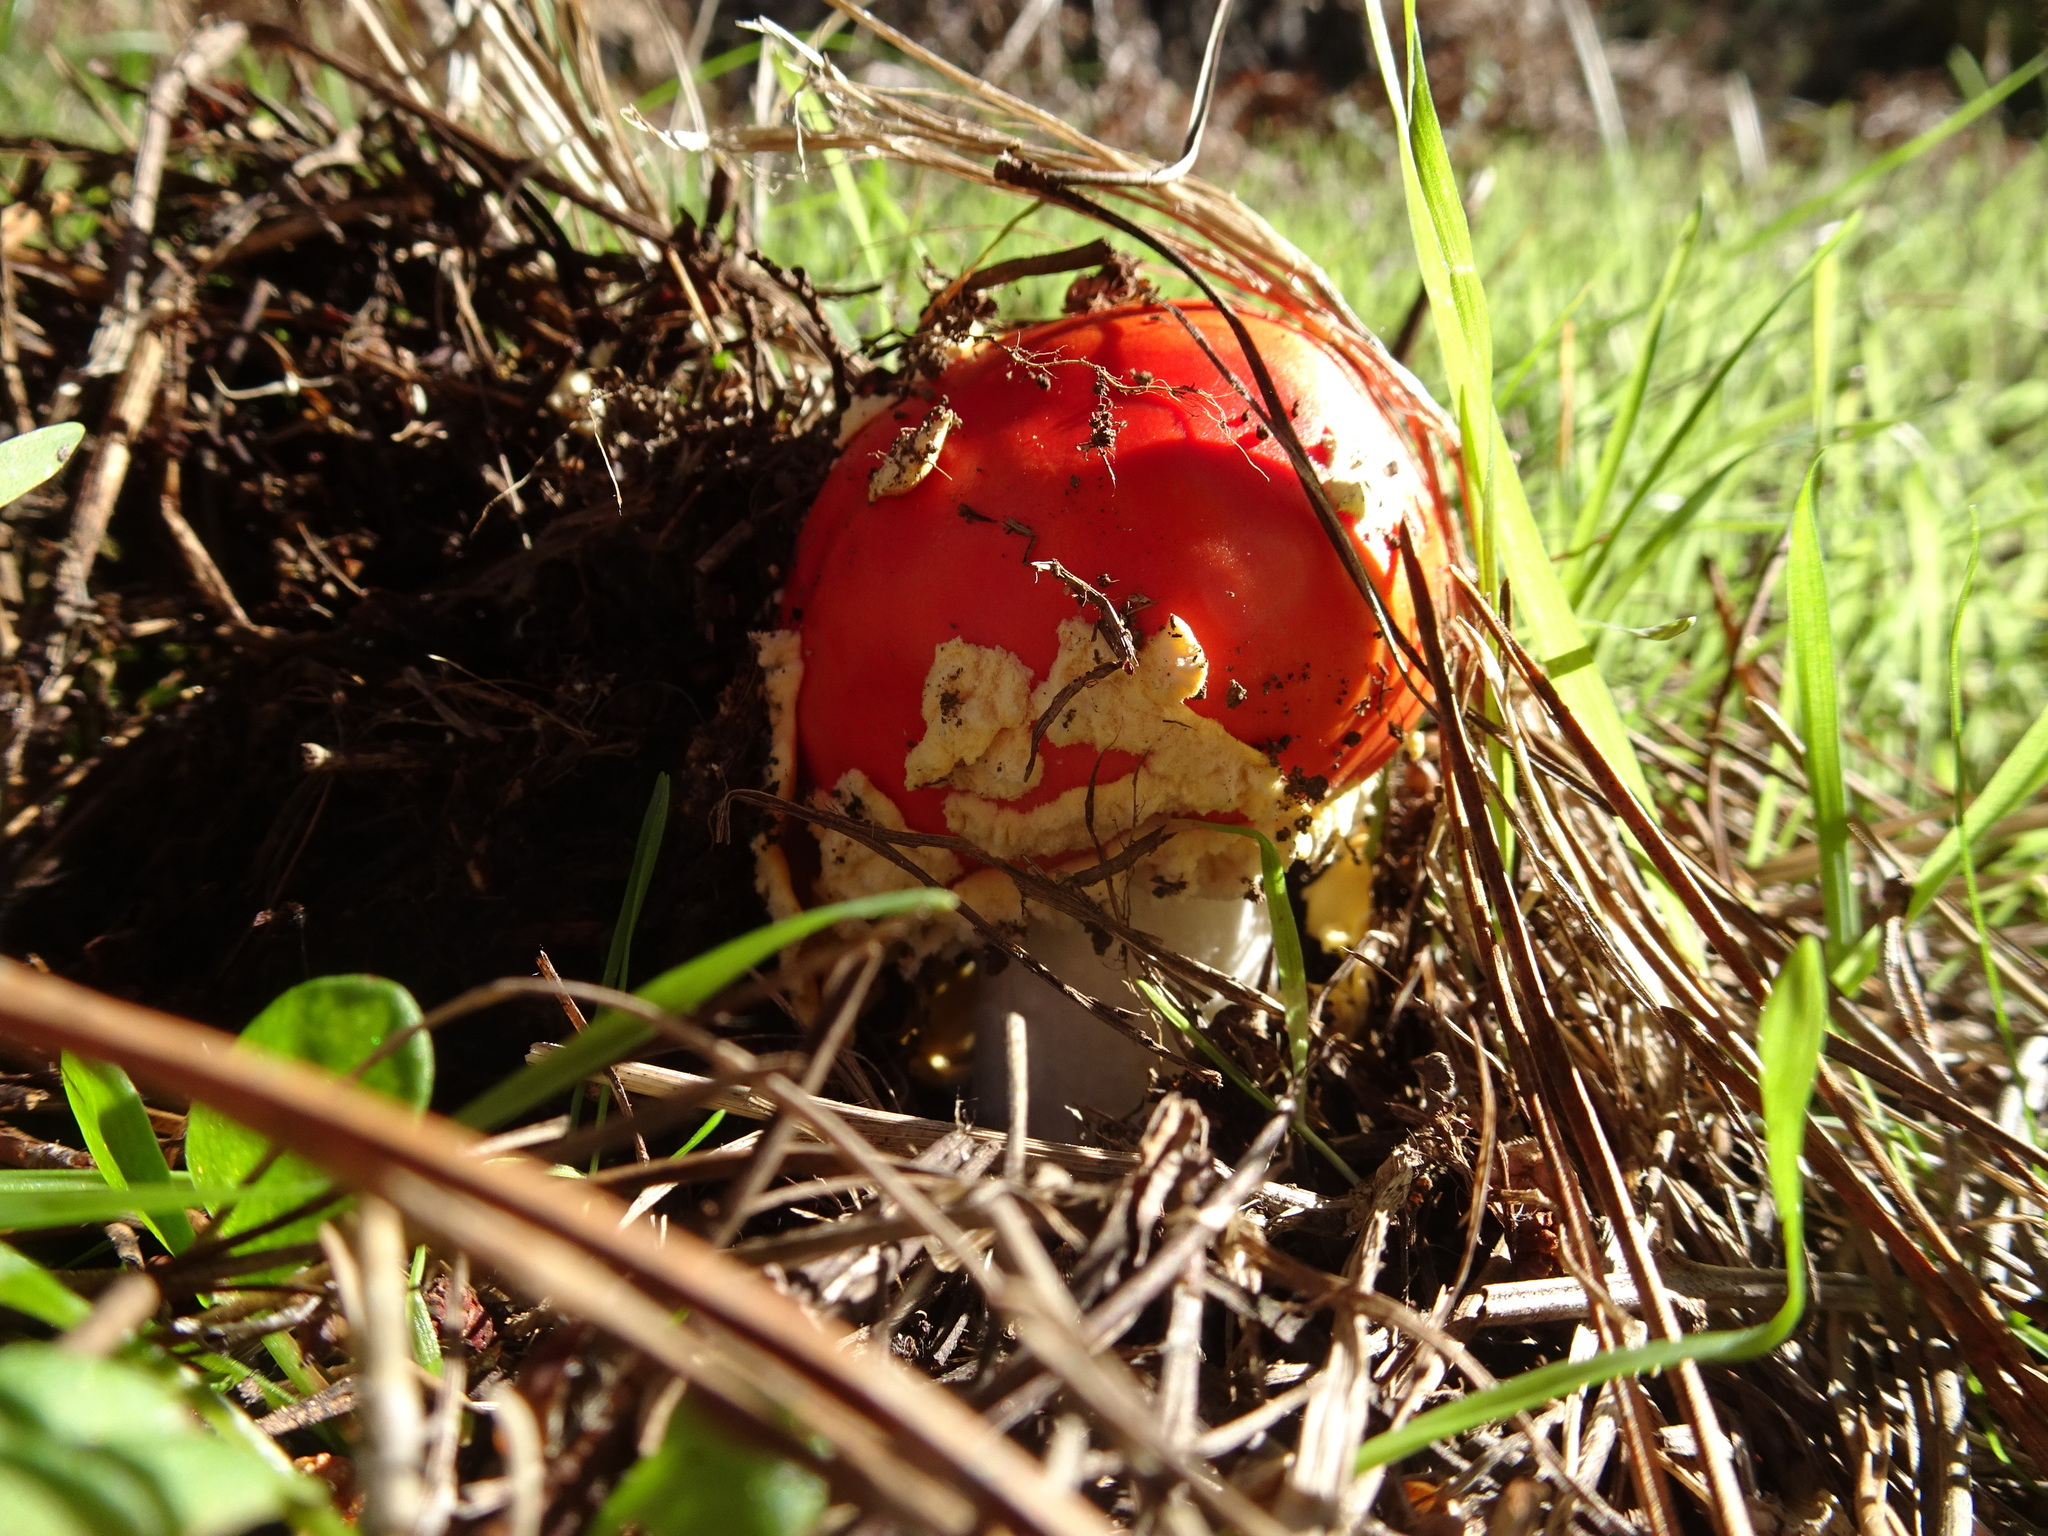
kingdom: Fungi
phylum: Basidiomycota
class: Agaricomycetes
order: Agaricales
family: Amanitaceae
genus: Amanita
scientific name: Amanita muscaria
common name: Fly agaric
